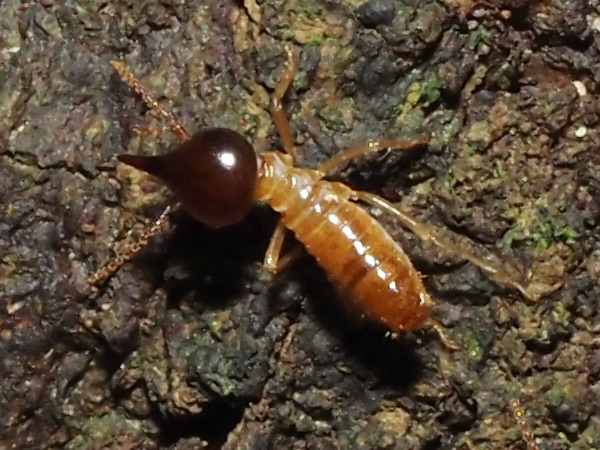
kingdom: Animalia
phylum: Arthropoda
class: Insecta
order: Blattodea
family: Termitidae
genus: Nasutitermes
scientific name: Nasutitermes
